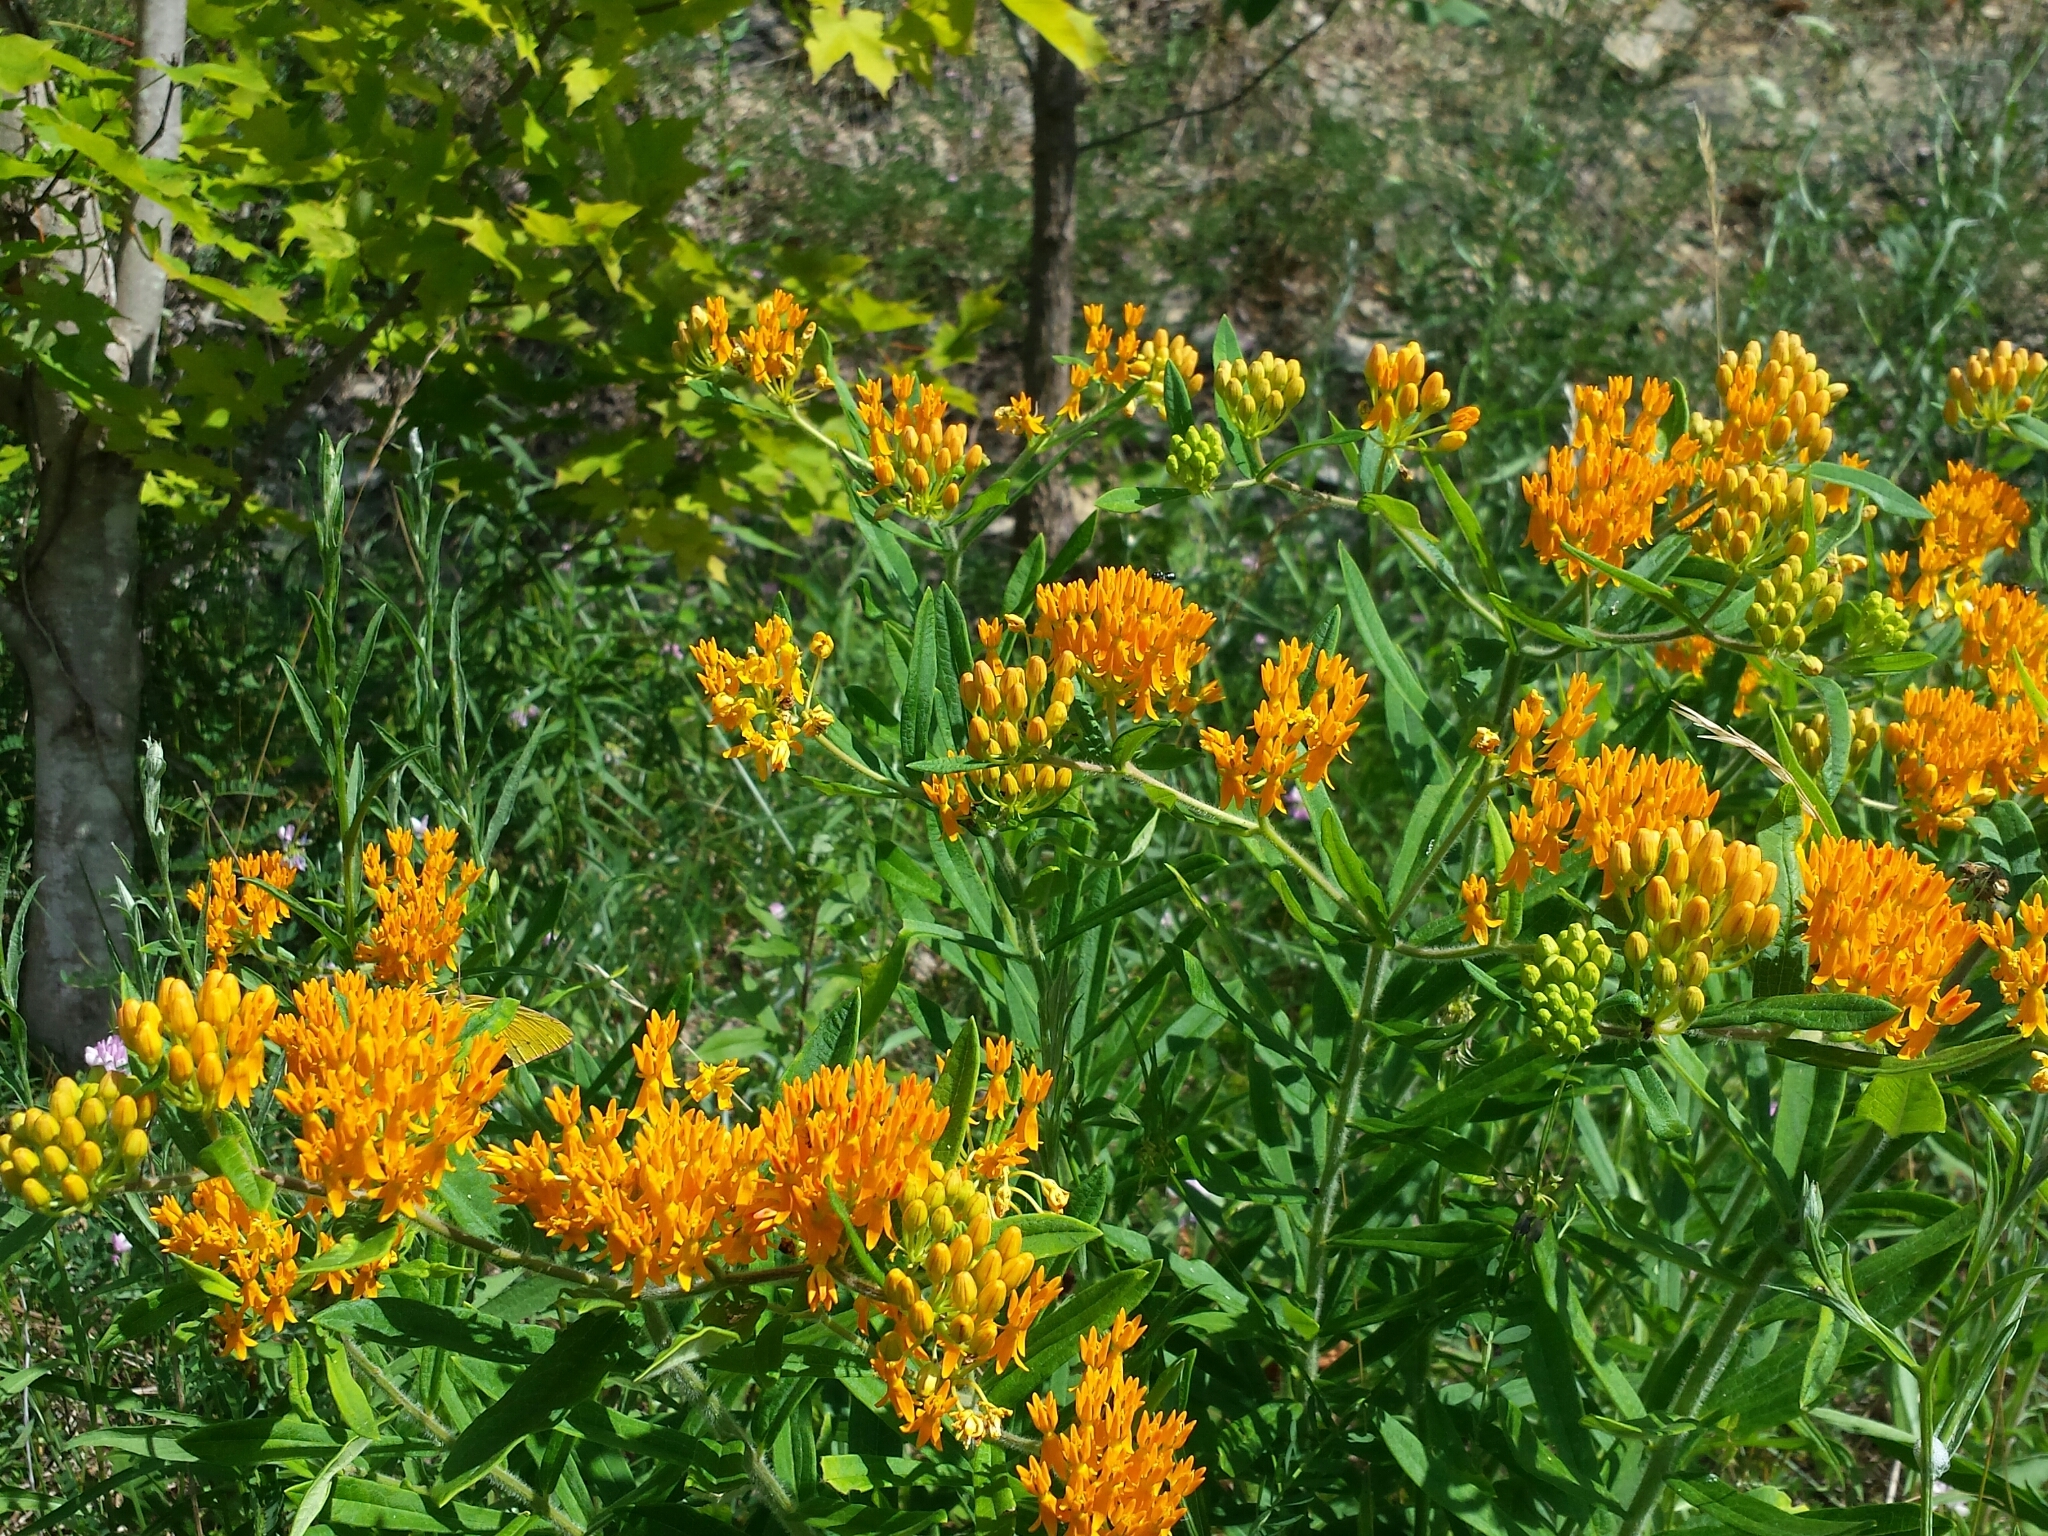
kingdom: Plantae
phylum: Tracheophyta
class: Magnoliopsida
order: Gentianales
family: Apocynaceae
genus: Asclepias
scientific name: Asclepias tuberosa
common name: Butterfly milkweed
